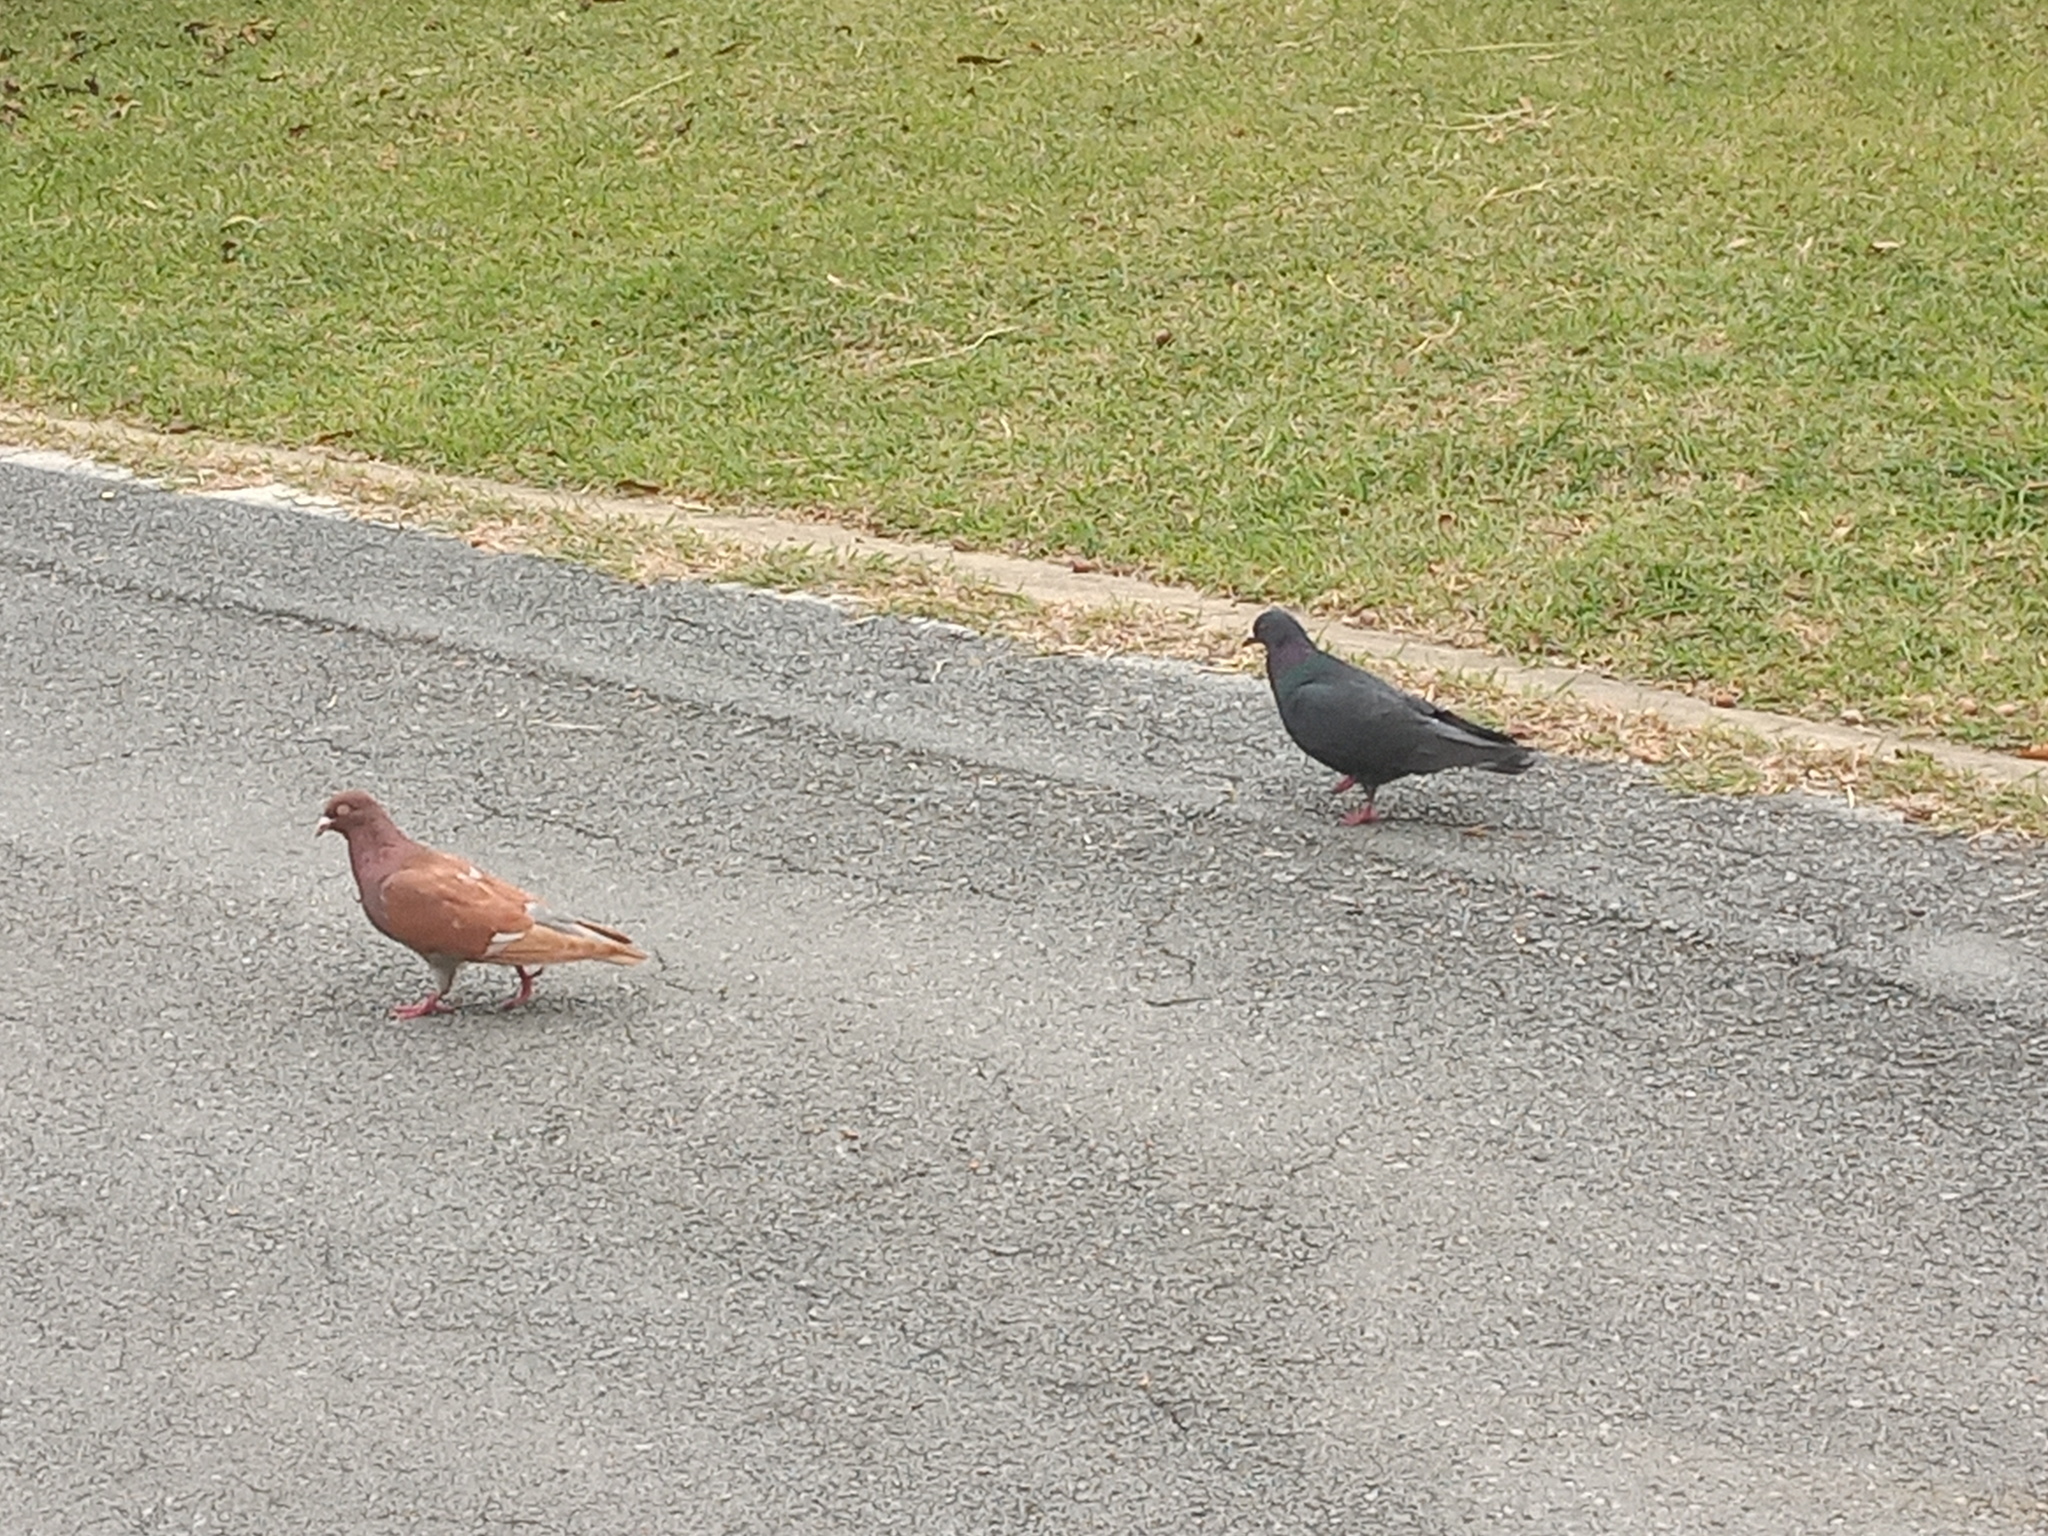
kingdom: Animalia
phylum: Chordata
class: Aves
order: Columbiformes
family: Columbidae
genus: Columba
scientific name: Columba livia
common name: Rock pigeon
